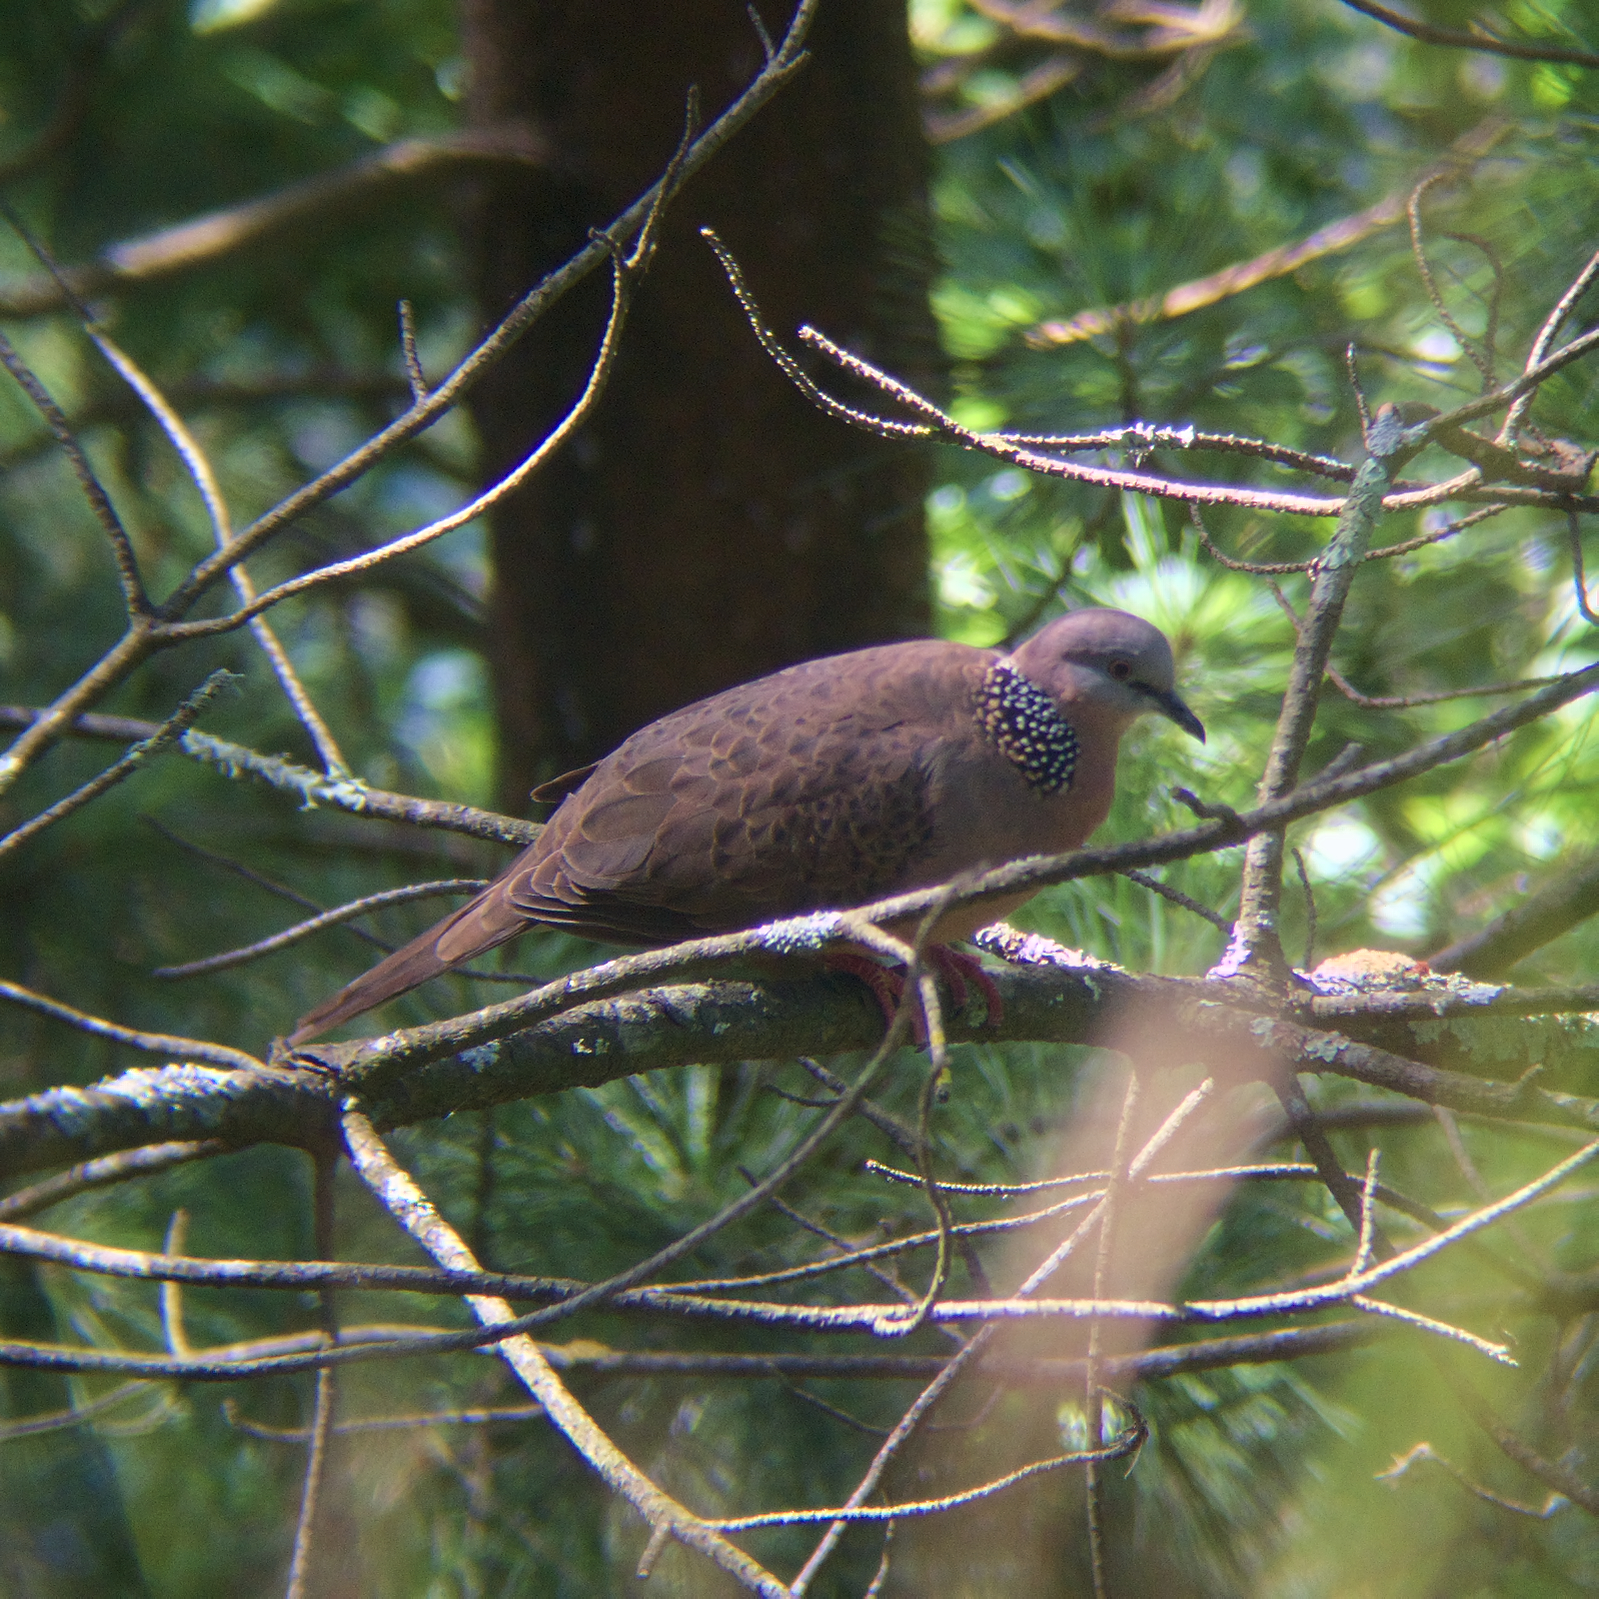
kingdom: Animalia
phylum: Chordata
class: Aves
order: Columbiformes
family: Columbidae
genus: Spilopelia
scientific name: Spilopelia chinensis
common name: Spotted dove
